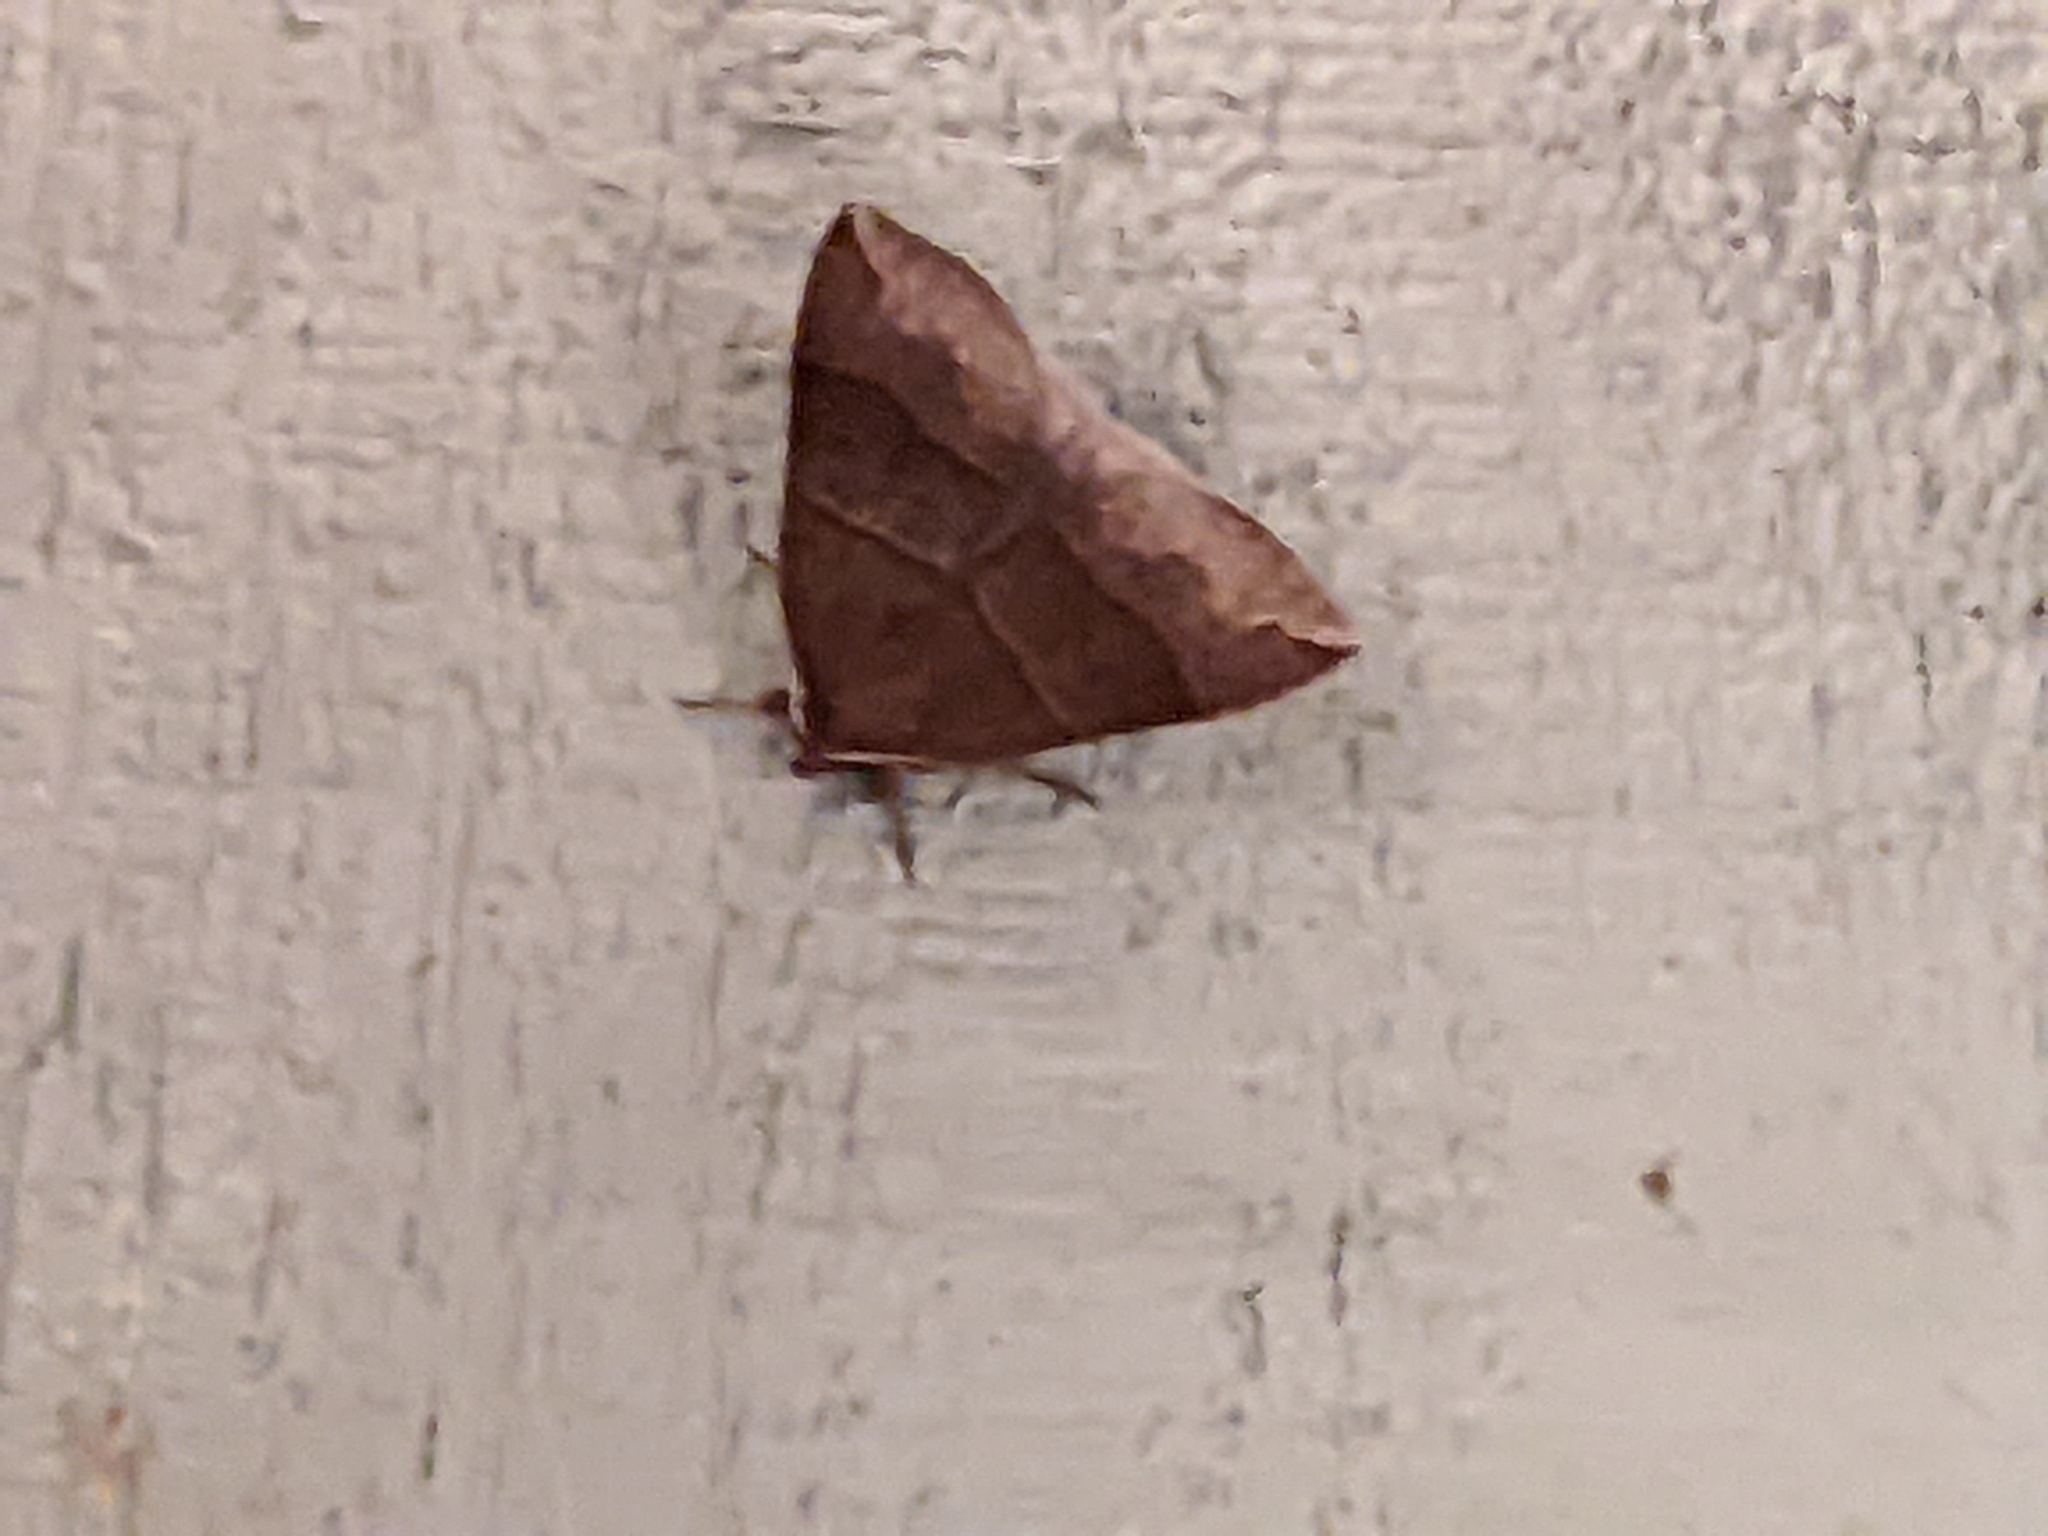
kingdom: Animalia
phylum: Arthropoda
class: Insecta
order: Lepidoptera
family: Erebidae
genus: Parallelia
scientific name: Parallelia bistriaris
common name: Maple looper moth
